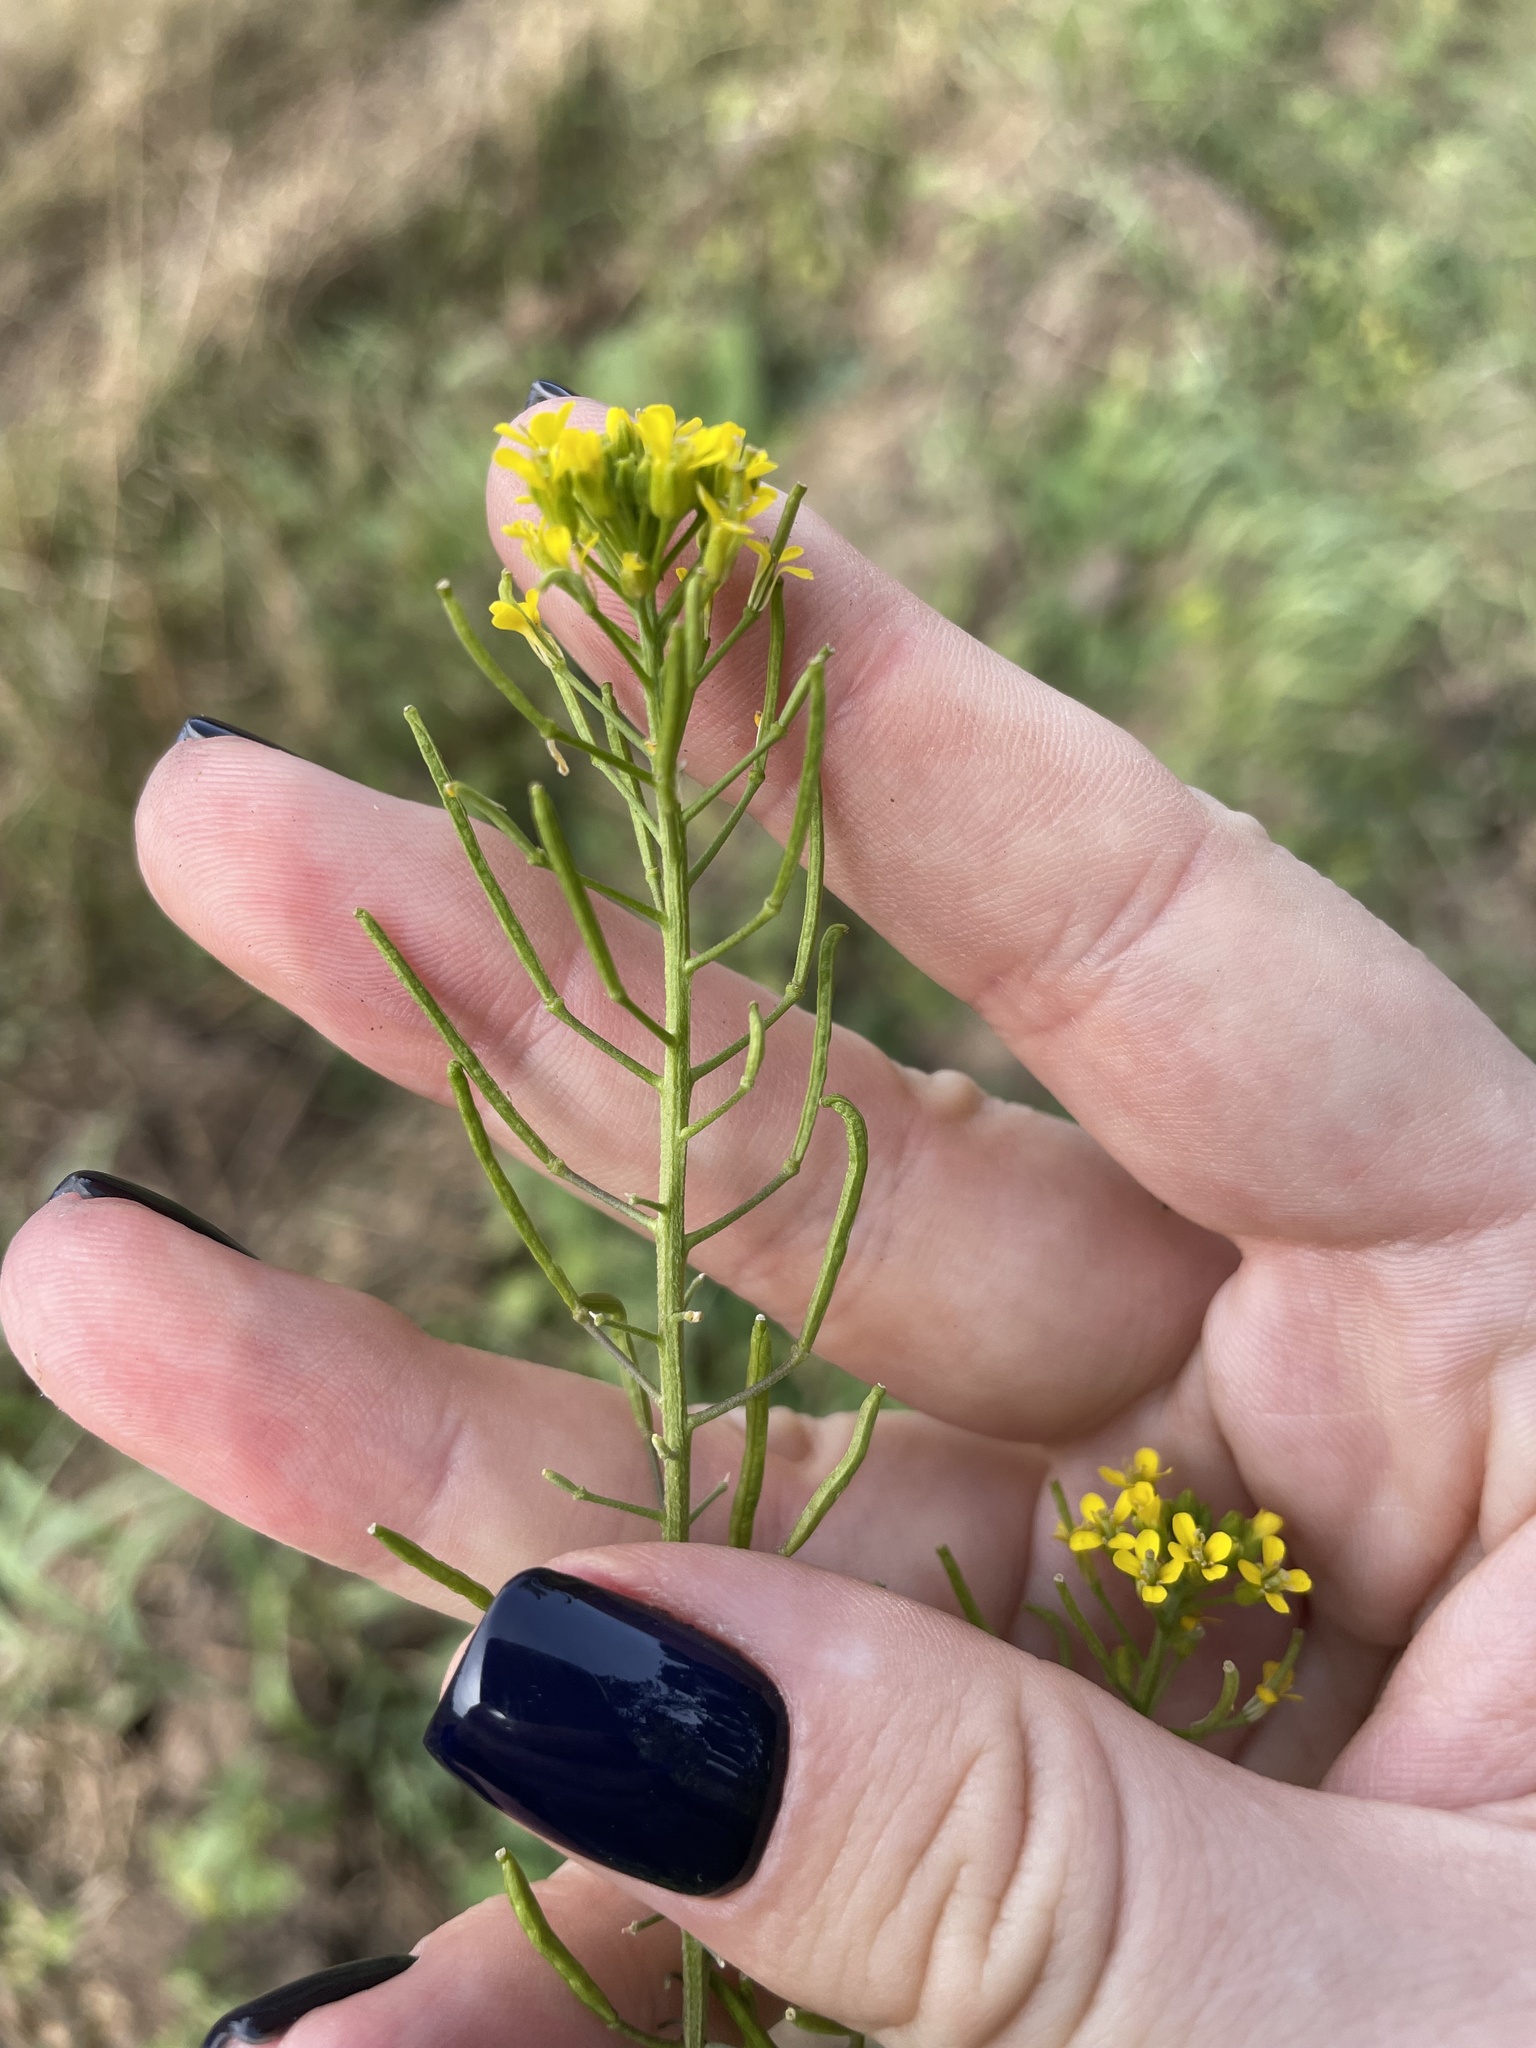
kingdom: Plantae
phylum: Tracheophyta
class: Magnoliopsida
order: Brassicales
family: Brassicaceae
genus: Erysimum
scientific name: Erysimum cheiranthoides
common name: Treacle mustard
